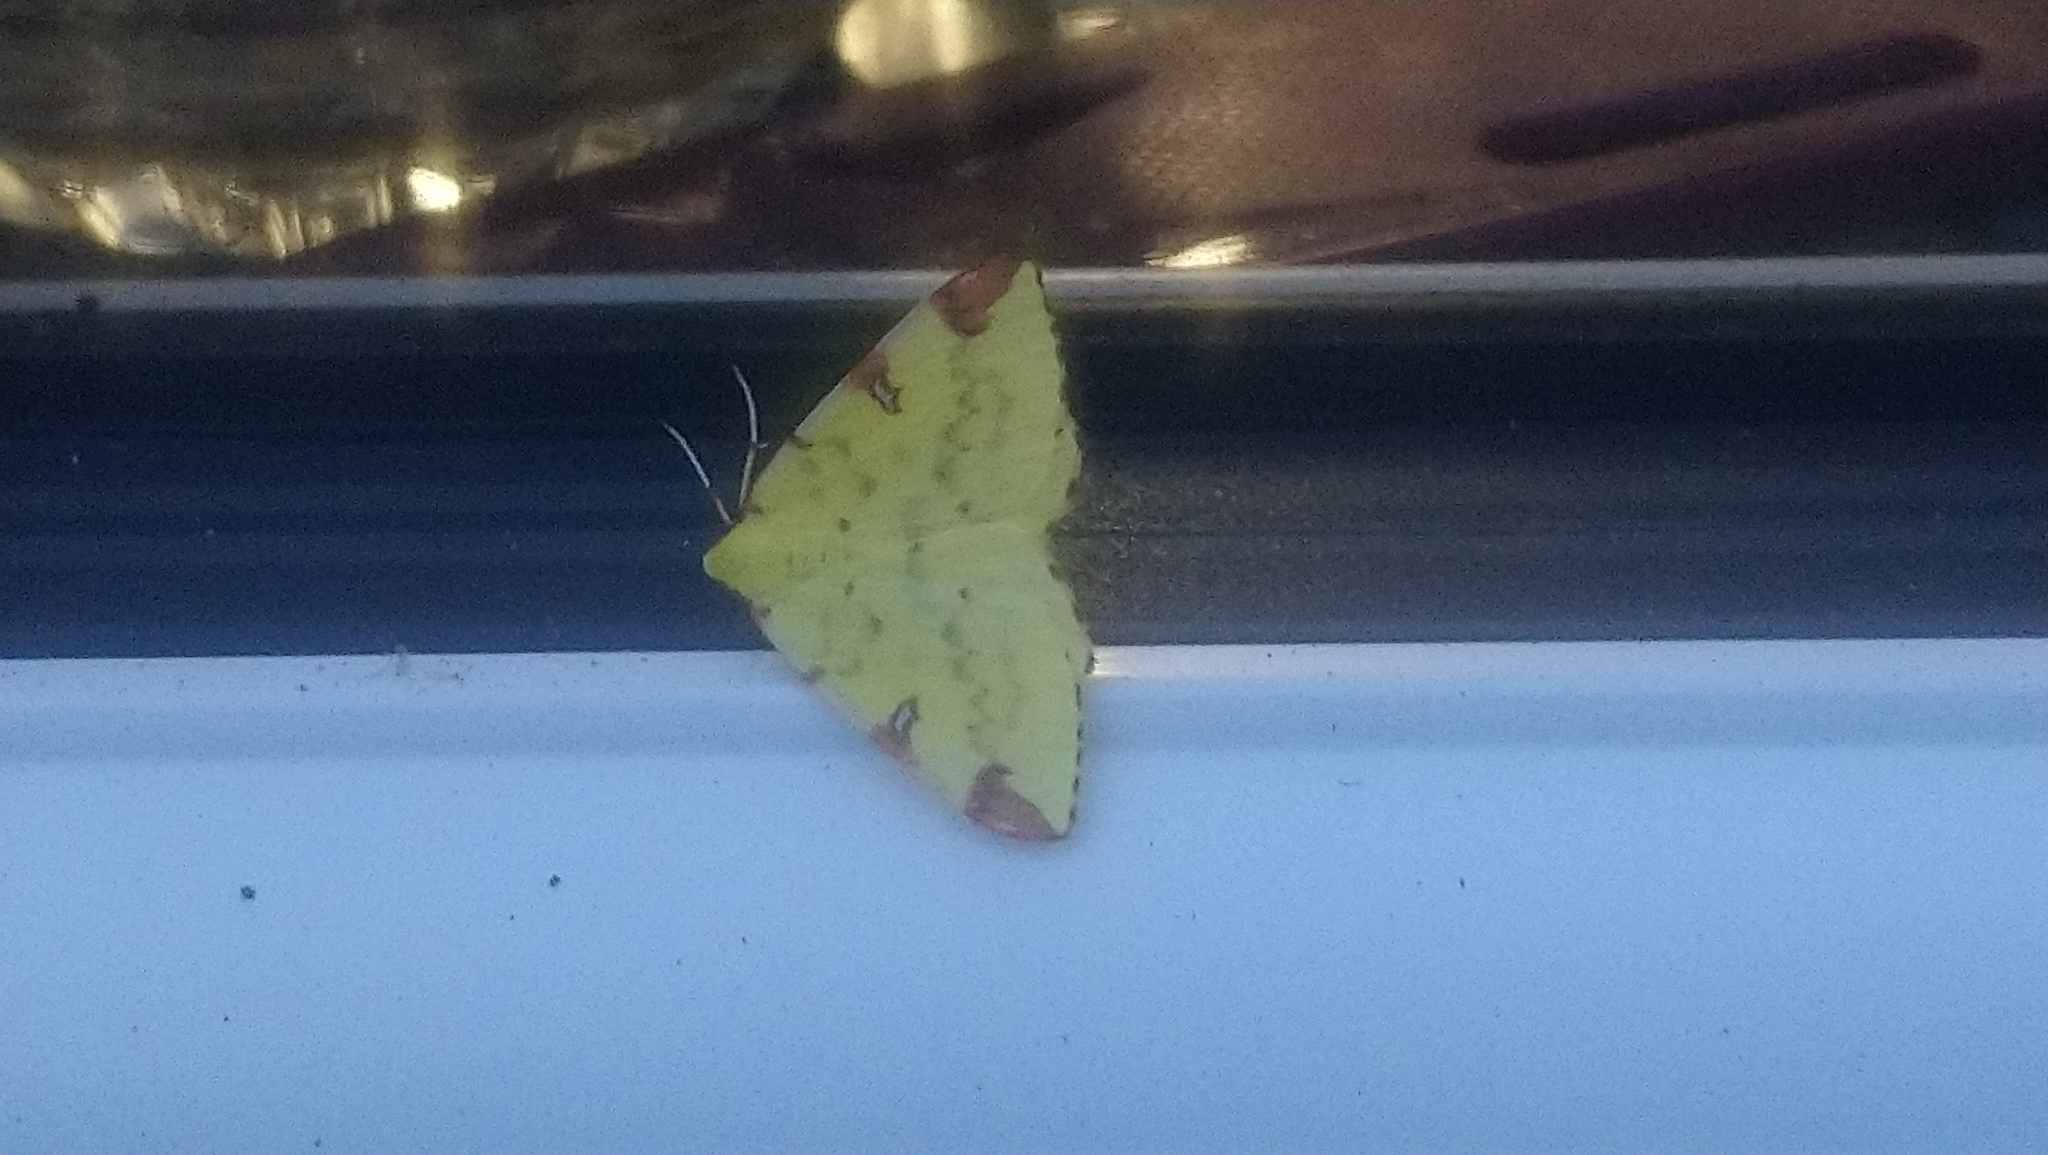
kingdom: Animalia
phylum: Arthropoda
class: Insecta
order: Lepidoptera
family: Geometridae
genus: Opisthograptis
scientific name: Opisthograptis luteolata
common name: Brimstone moth
